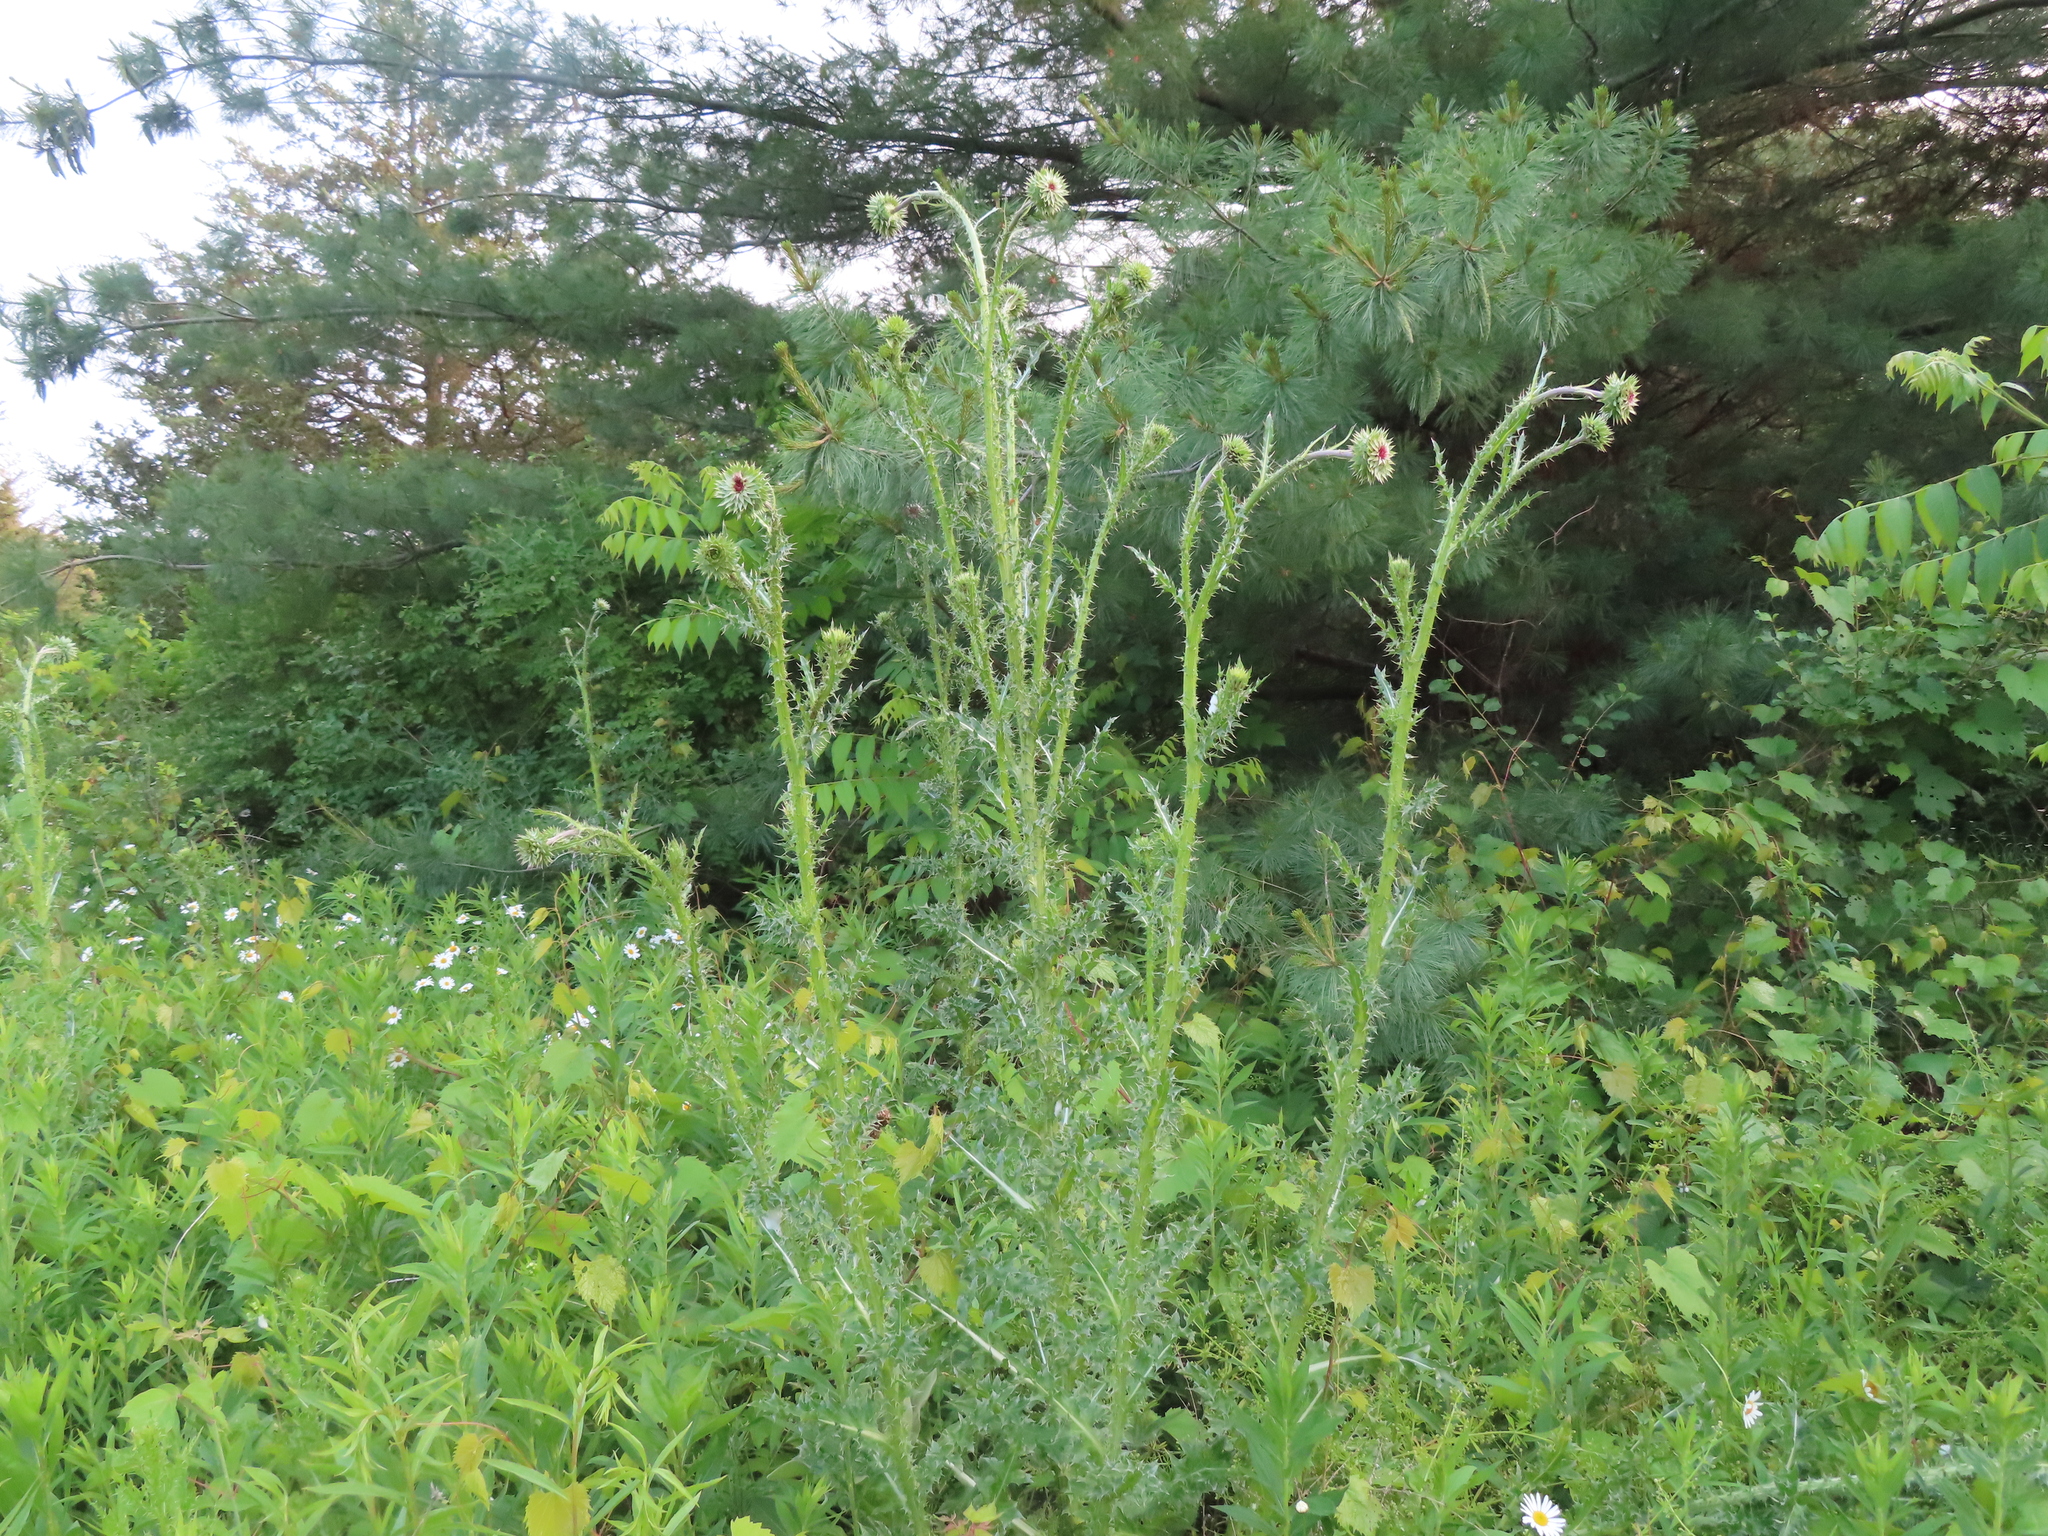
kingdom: Plantae
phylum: Tracheophyta
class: Magnoliopsida
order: Asterales
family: Asteraceae
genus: Carduus
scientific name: Carduus nutans
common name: Musk thistle
